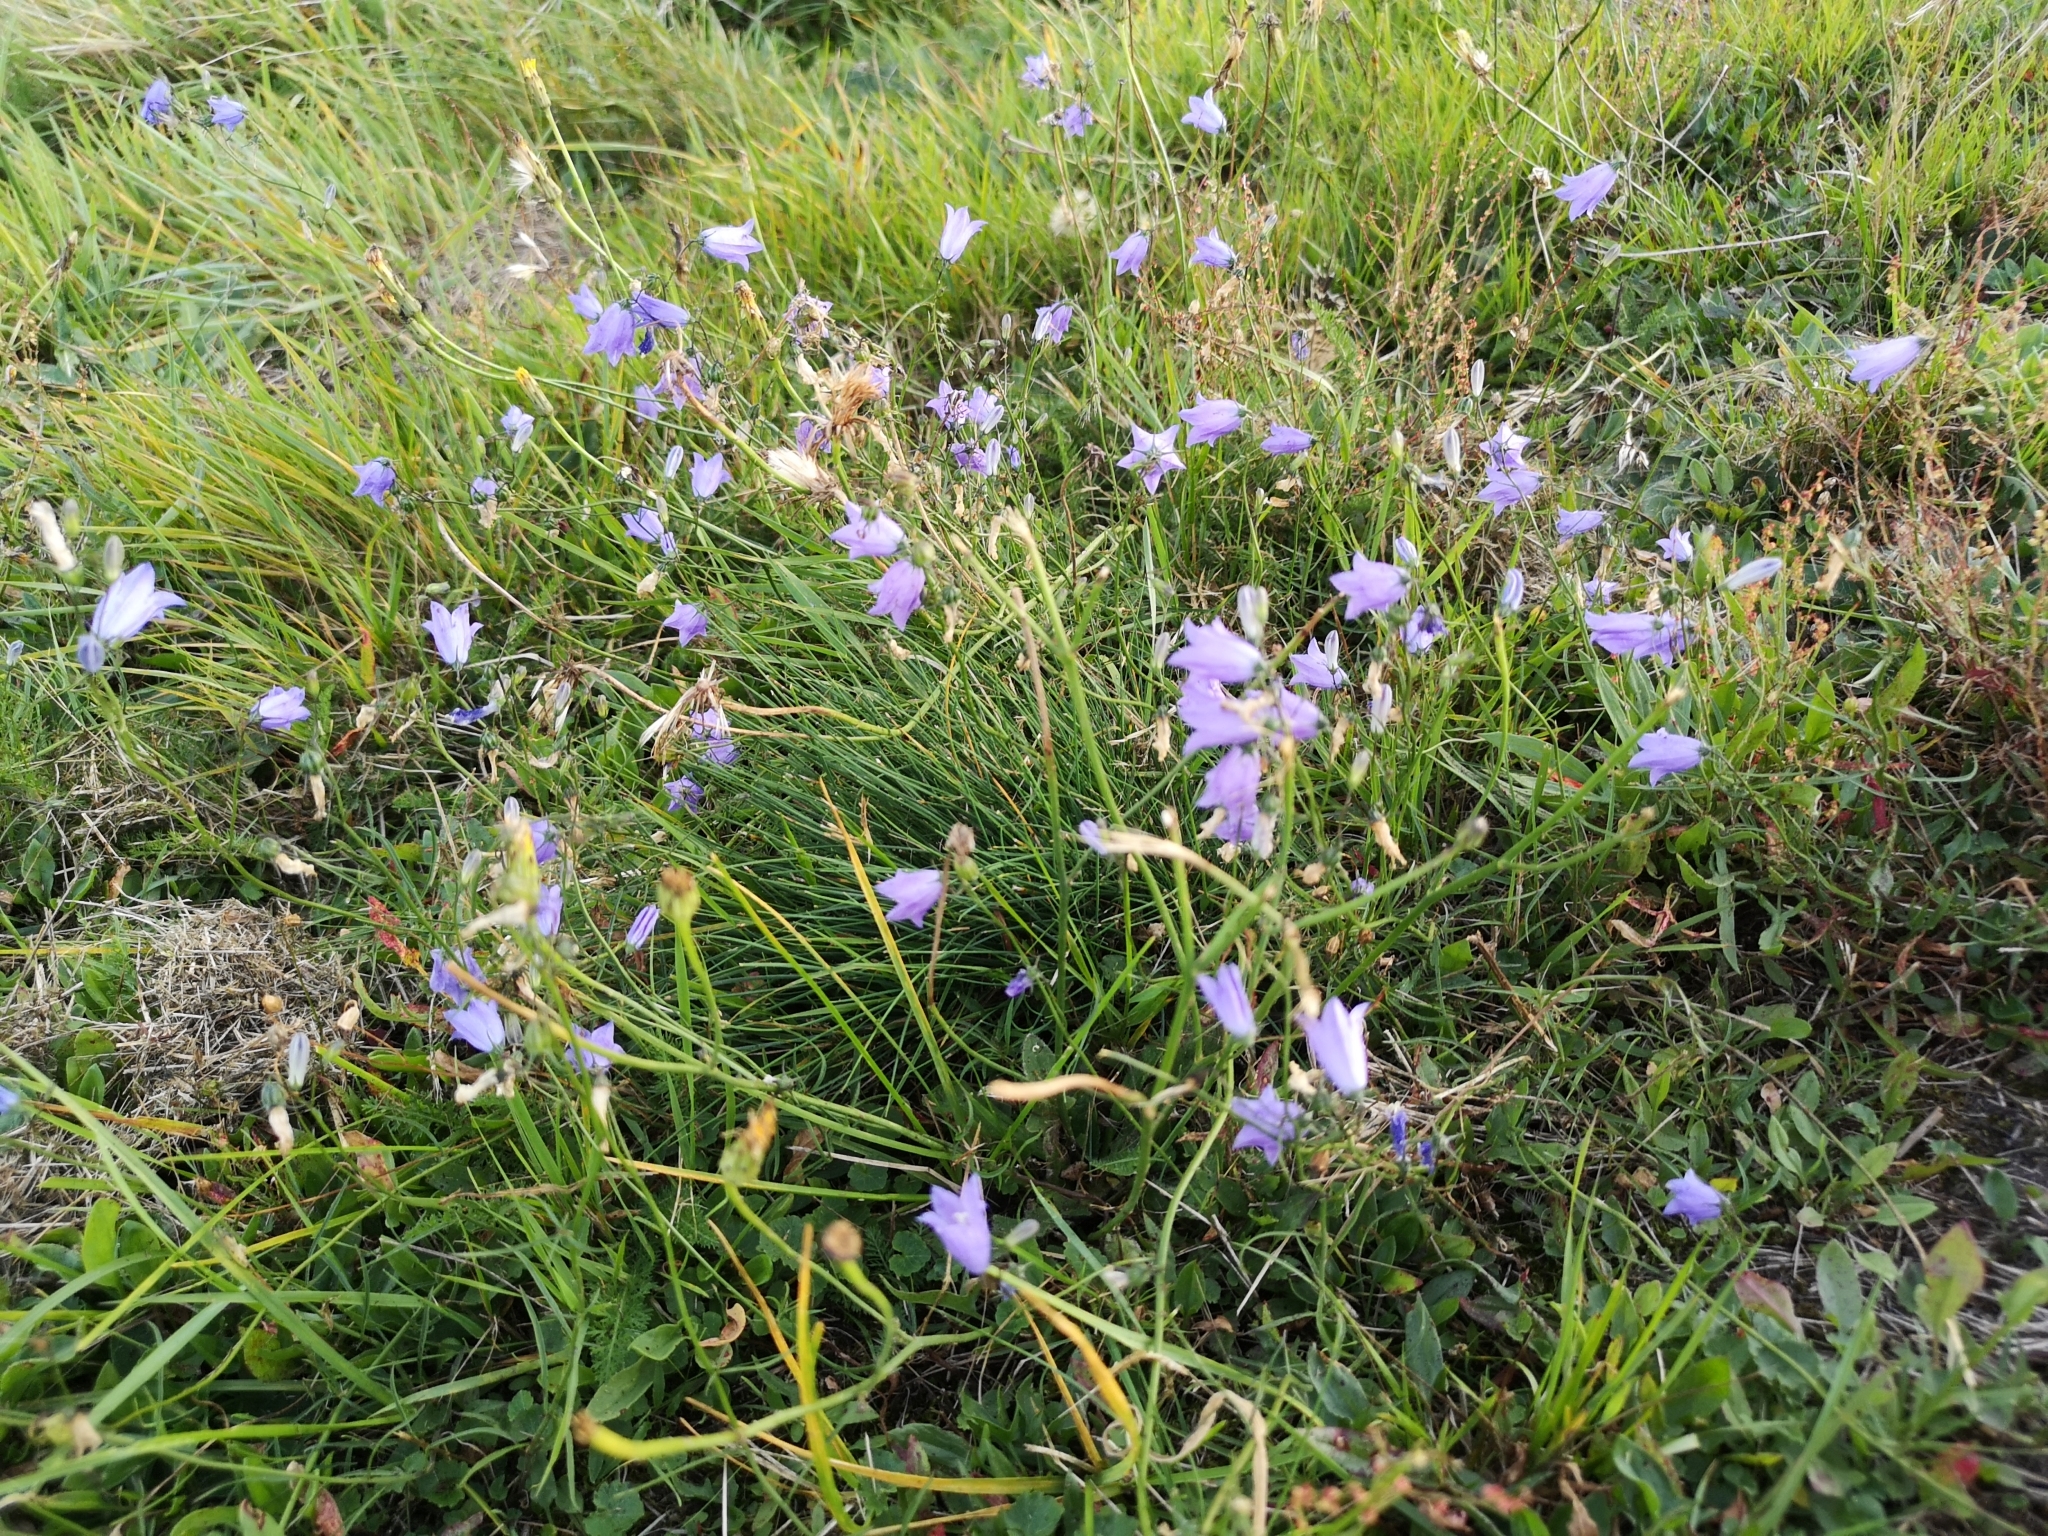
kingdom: Plantae
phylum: Tracheophyta
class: Magnoliopsida
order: Asterales
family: Campanulaceae
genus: Campanula
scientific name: Campanula rotundifolia
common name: Harebell
